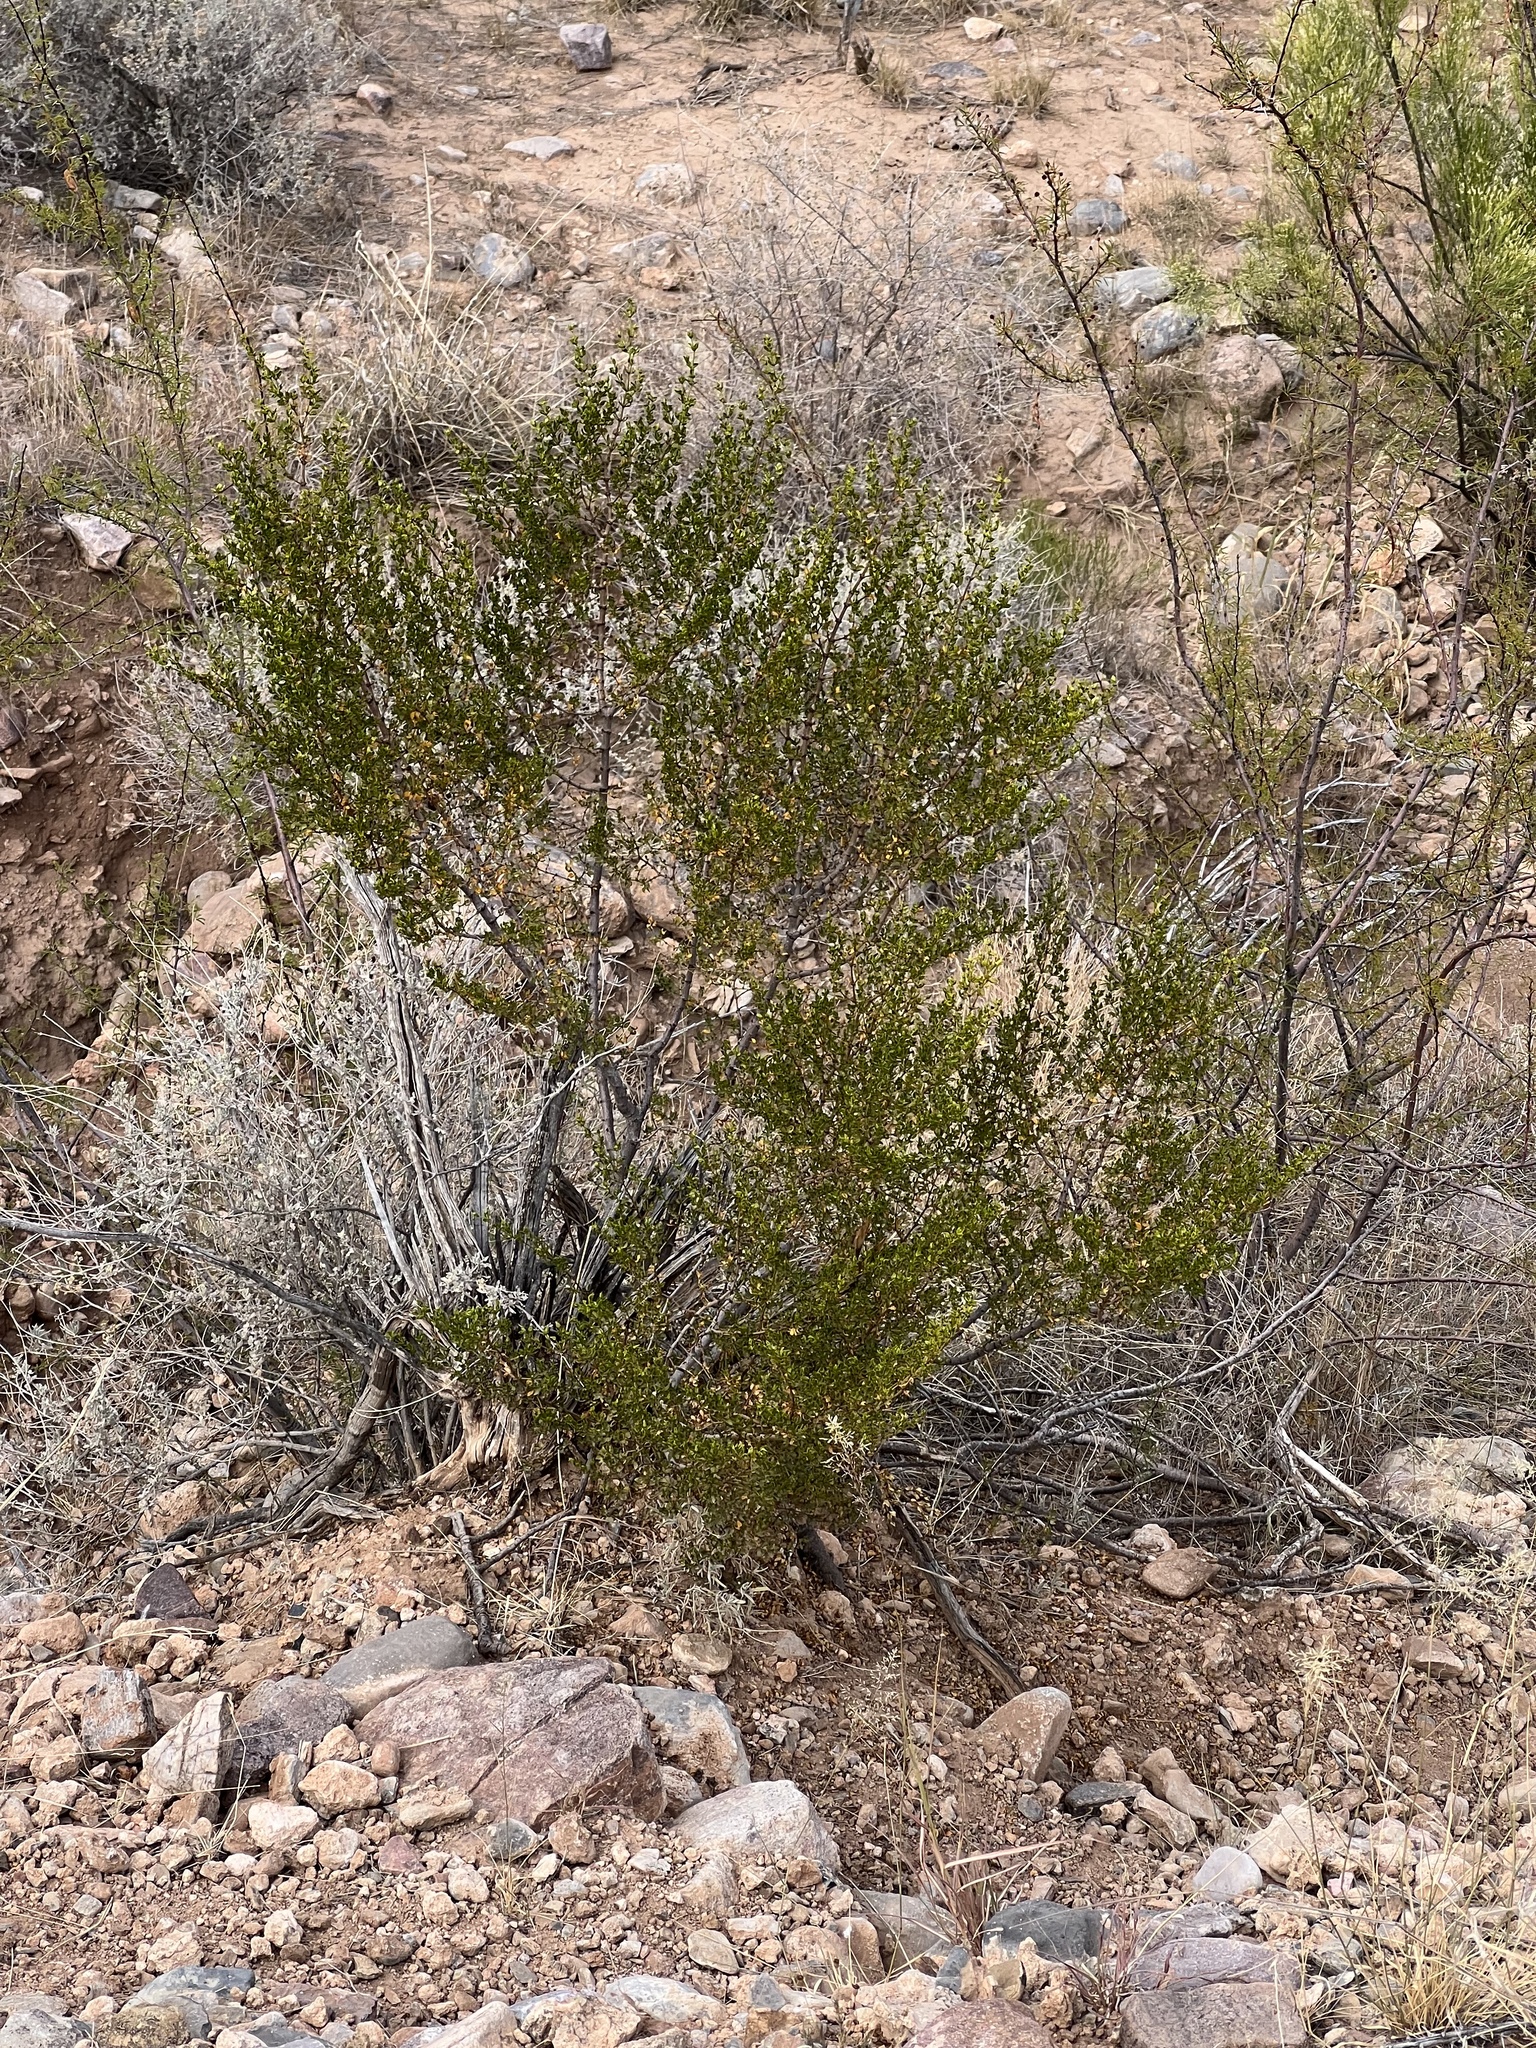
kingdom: Plantae
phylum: Tracheophyta
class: Magnoliopsida
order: Zygophyllales
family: Zygophyllaceae
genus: Larrea
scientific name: Larrea tridentata
